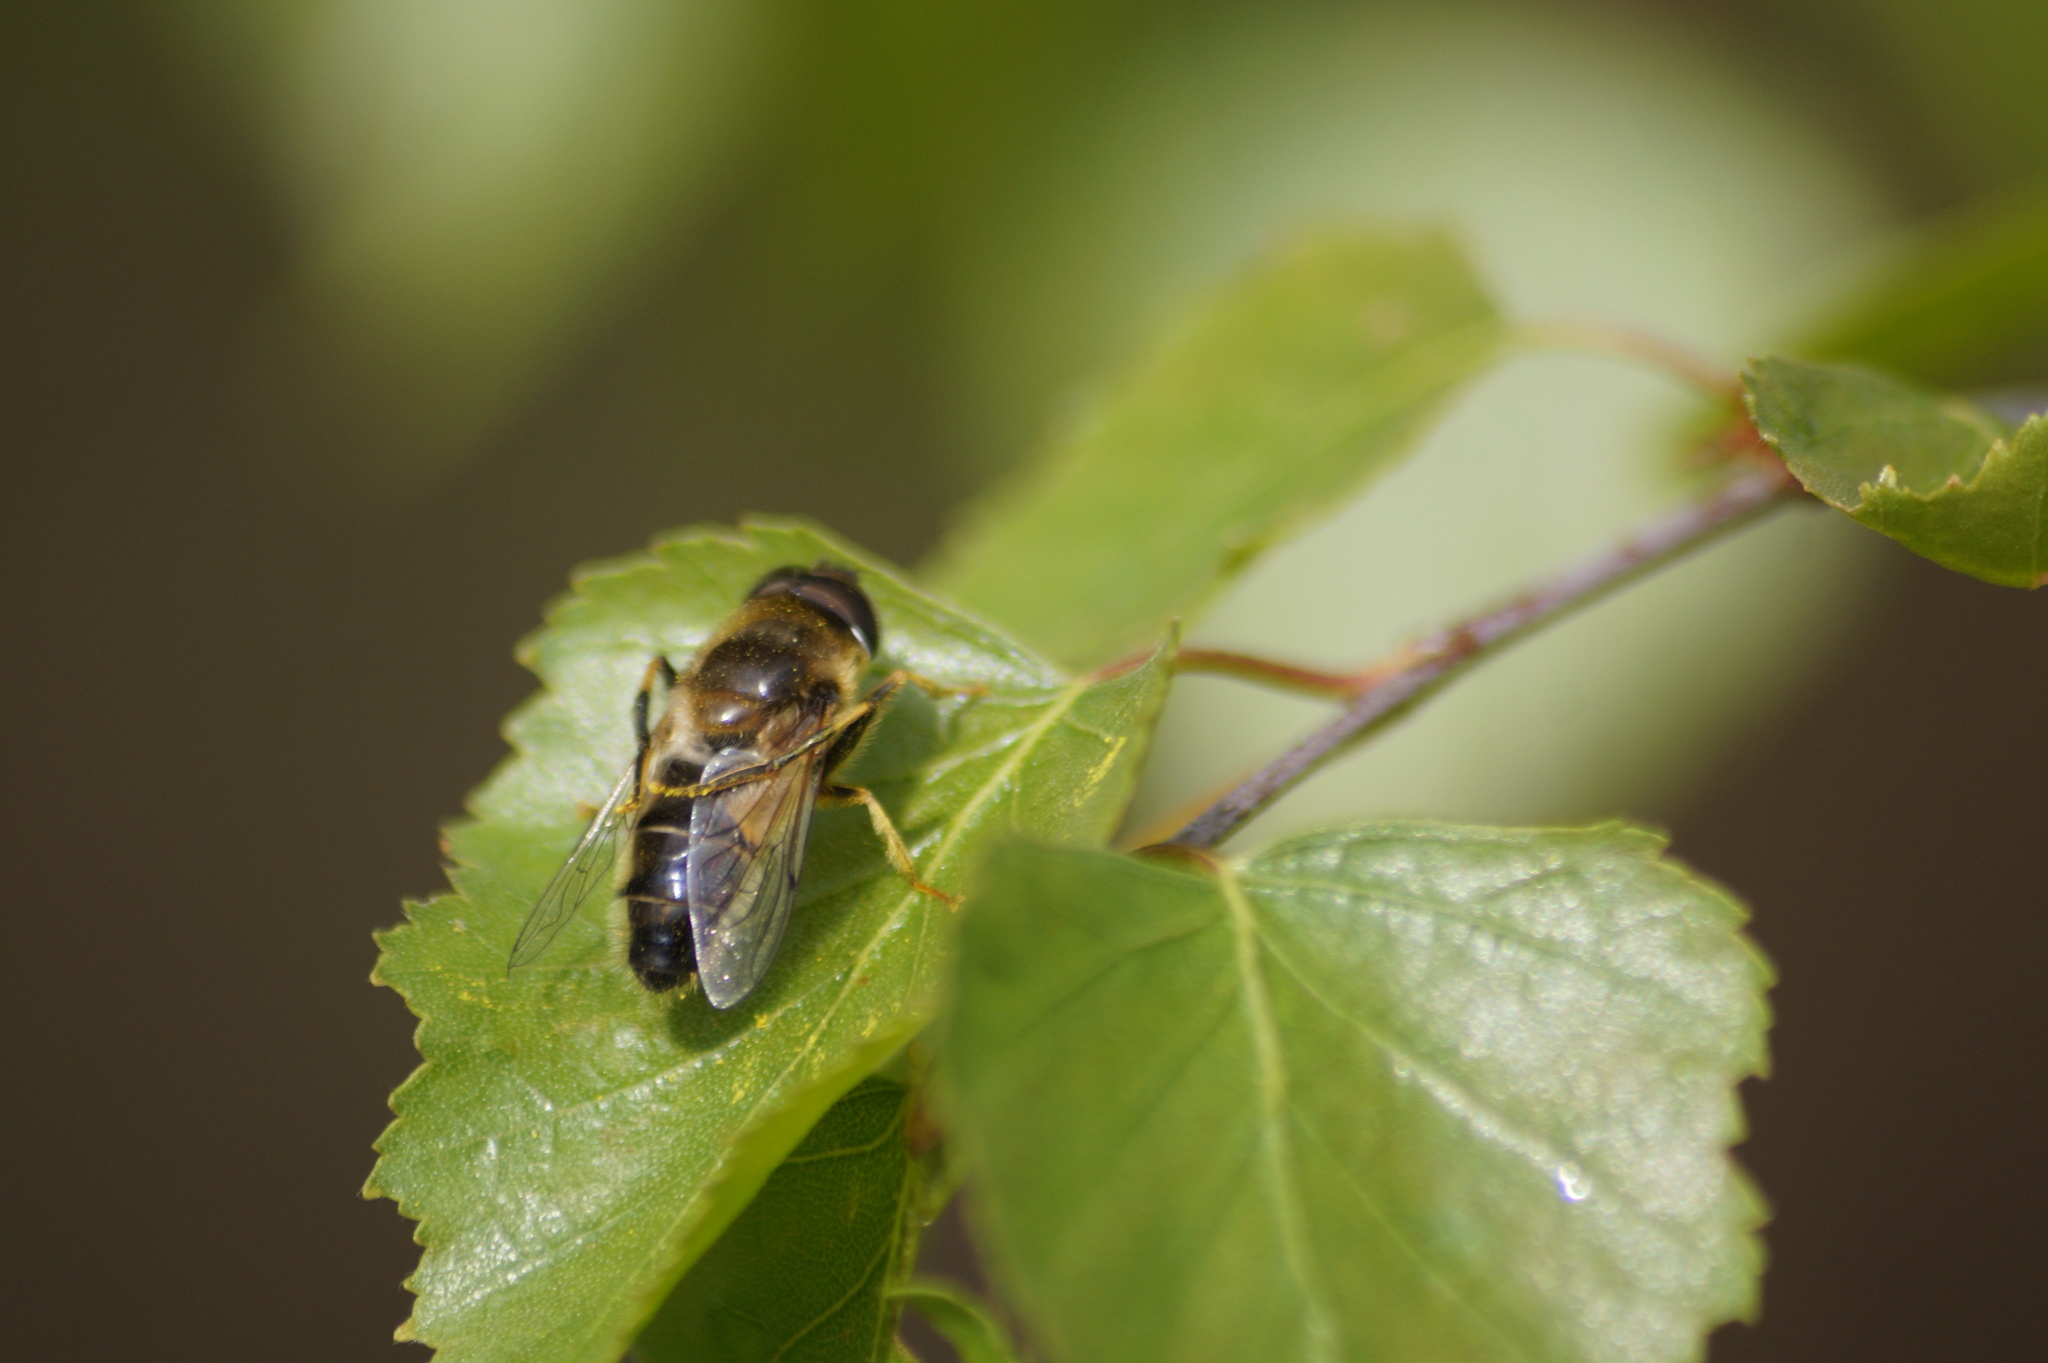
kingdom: Animalia
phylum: Arthropoda
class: Insecta
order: Diptera
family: Syrphidae
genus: Eristalis
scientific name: Eristalis pertinax
